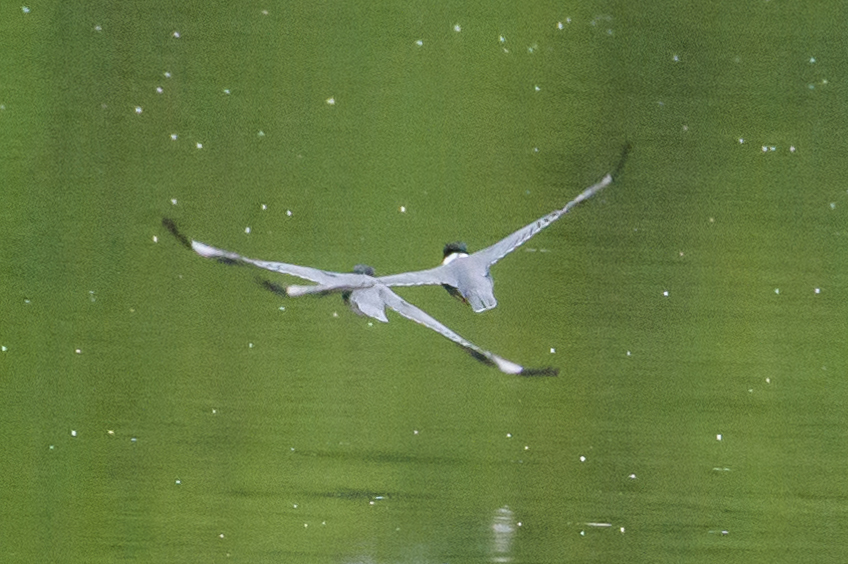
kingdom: Animalia
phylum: Chordata
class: Aves
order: Coraciiformes
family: Alcedinidae
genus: Megaceryle
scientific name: Megaceryle alcyon
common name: Belted kingfisher
